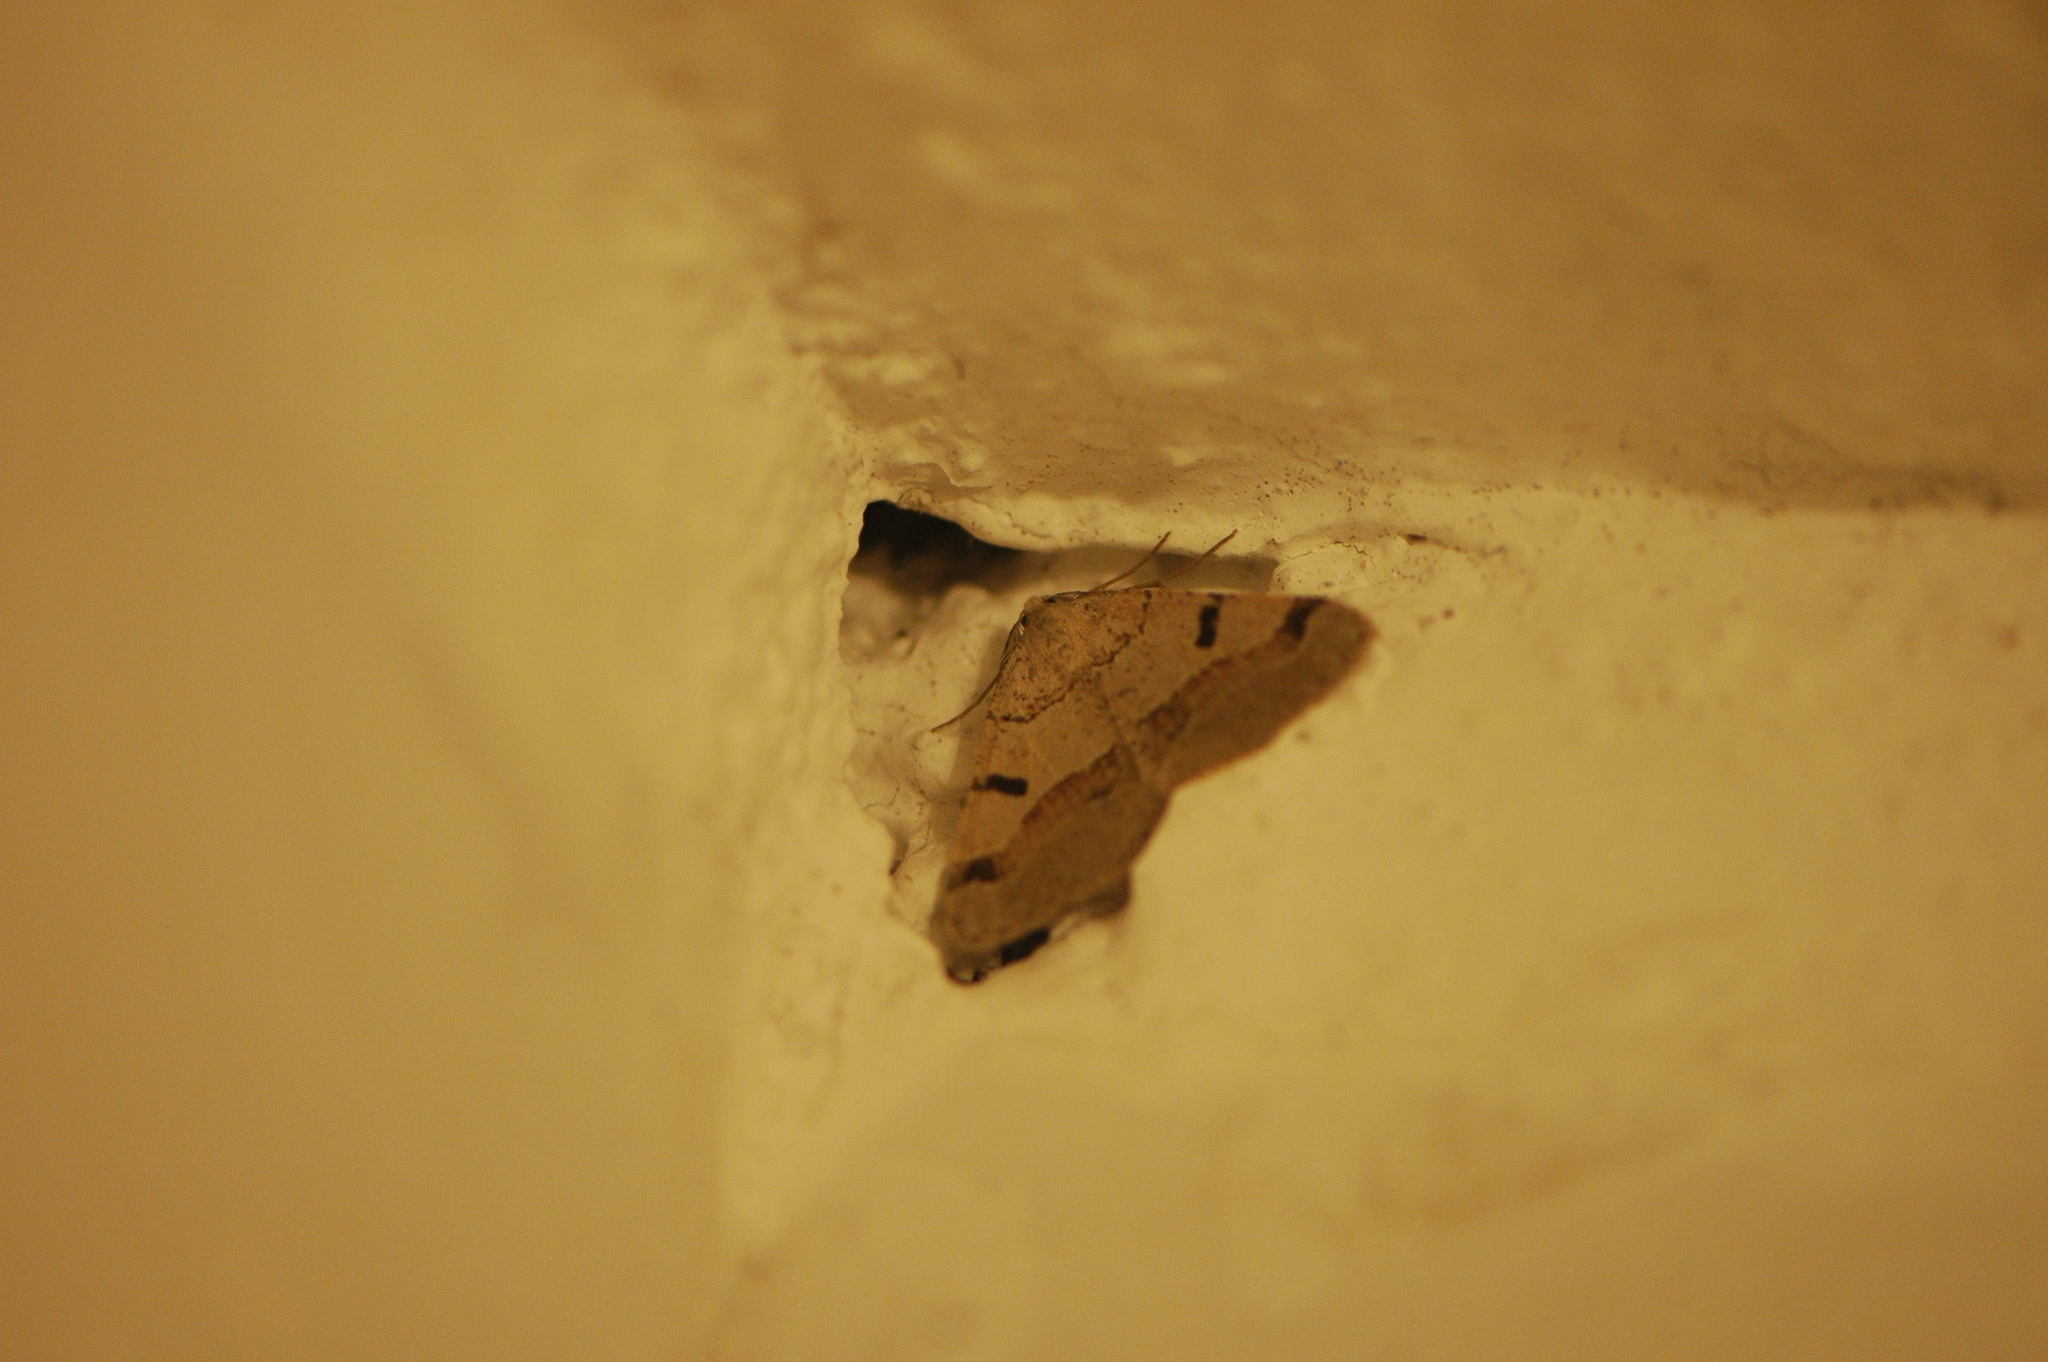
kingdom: Animalia
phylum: Arthropoda
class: Insecta
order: Lepidoptera
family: Geometridae
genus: Itame
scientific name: Itame vincularia
